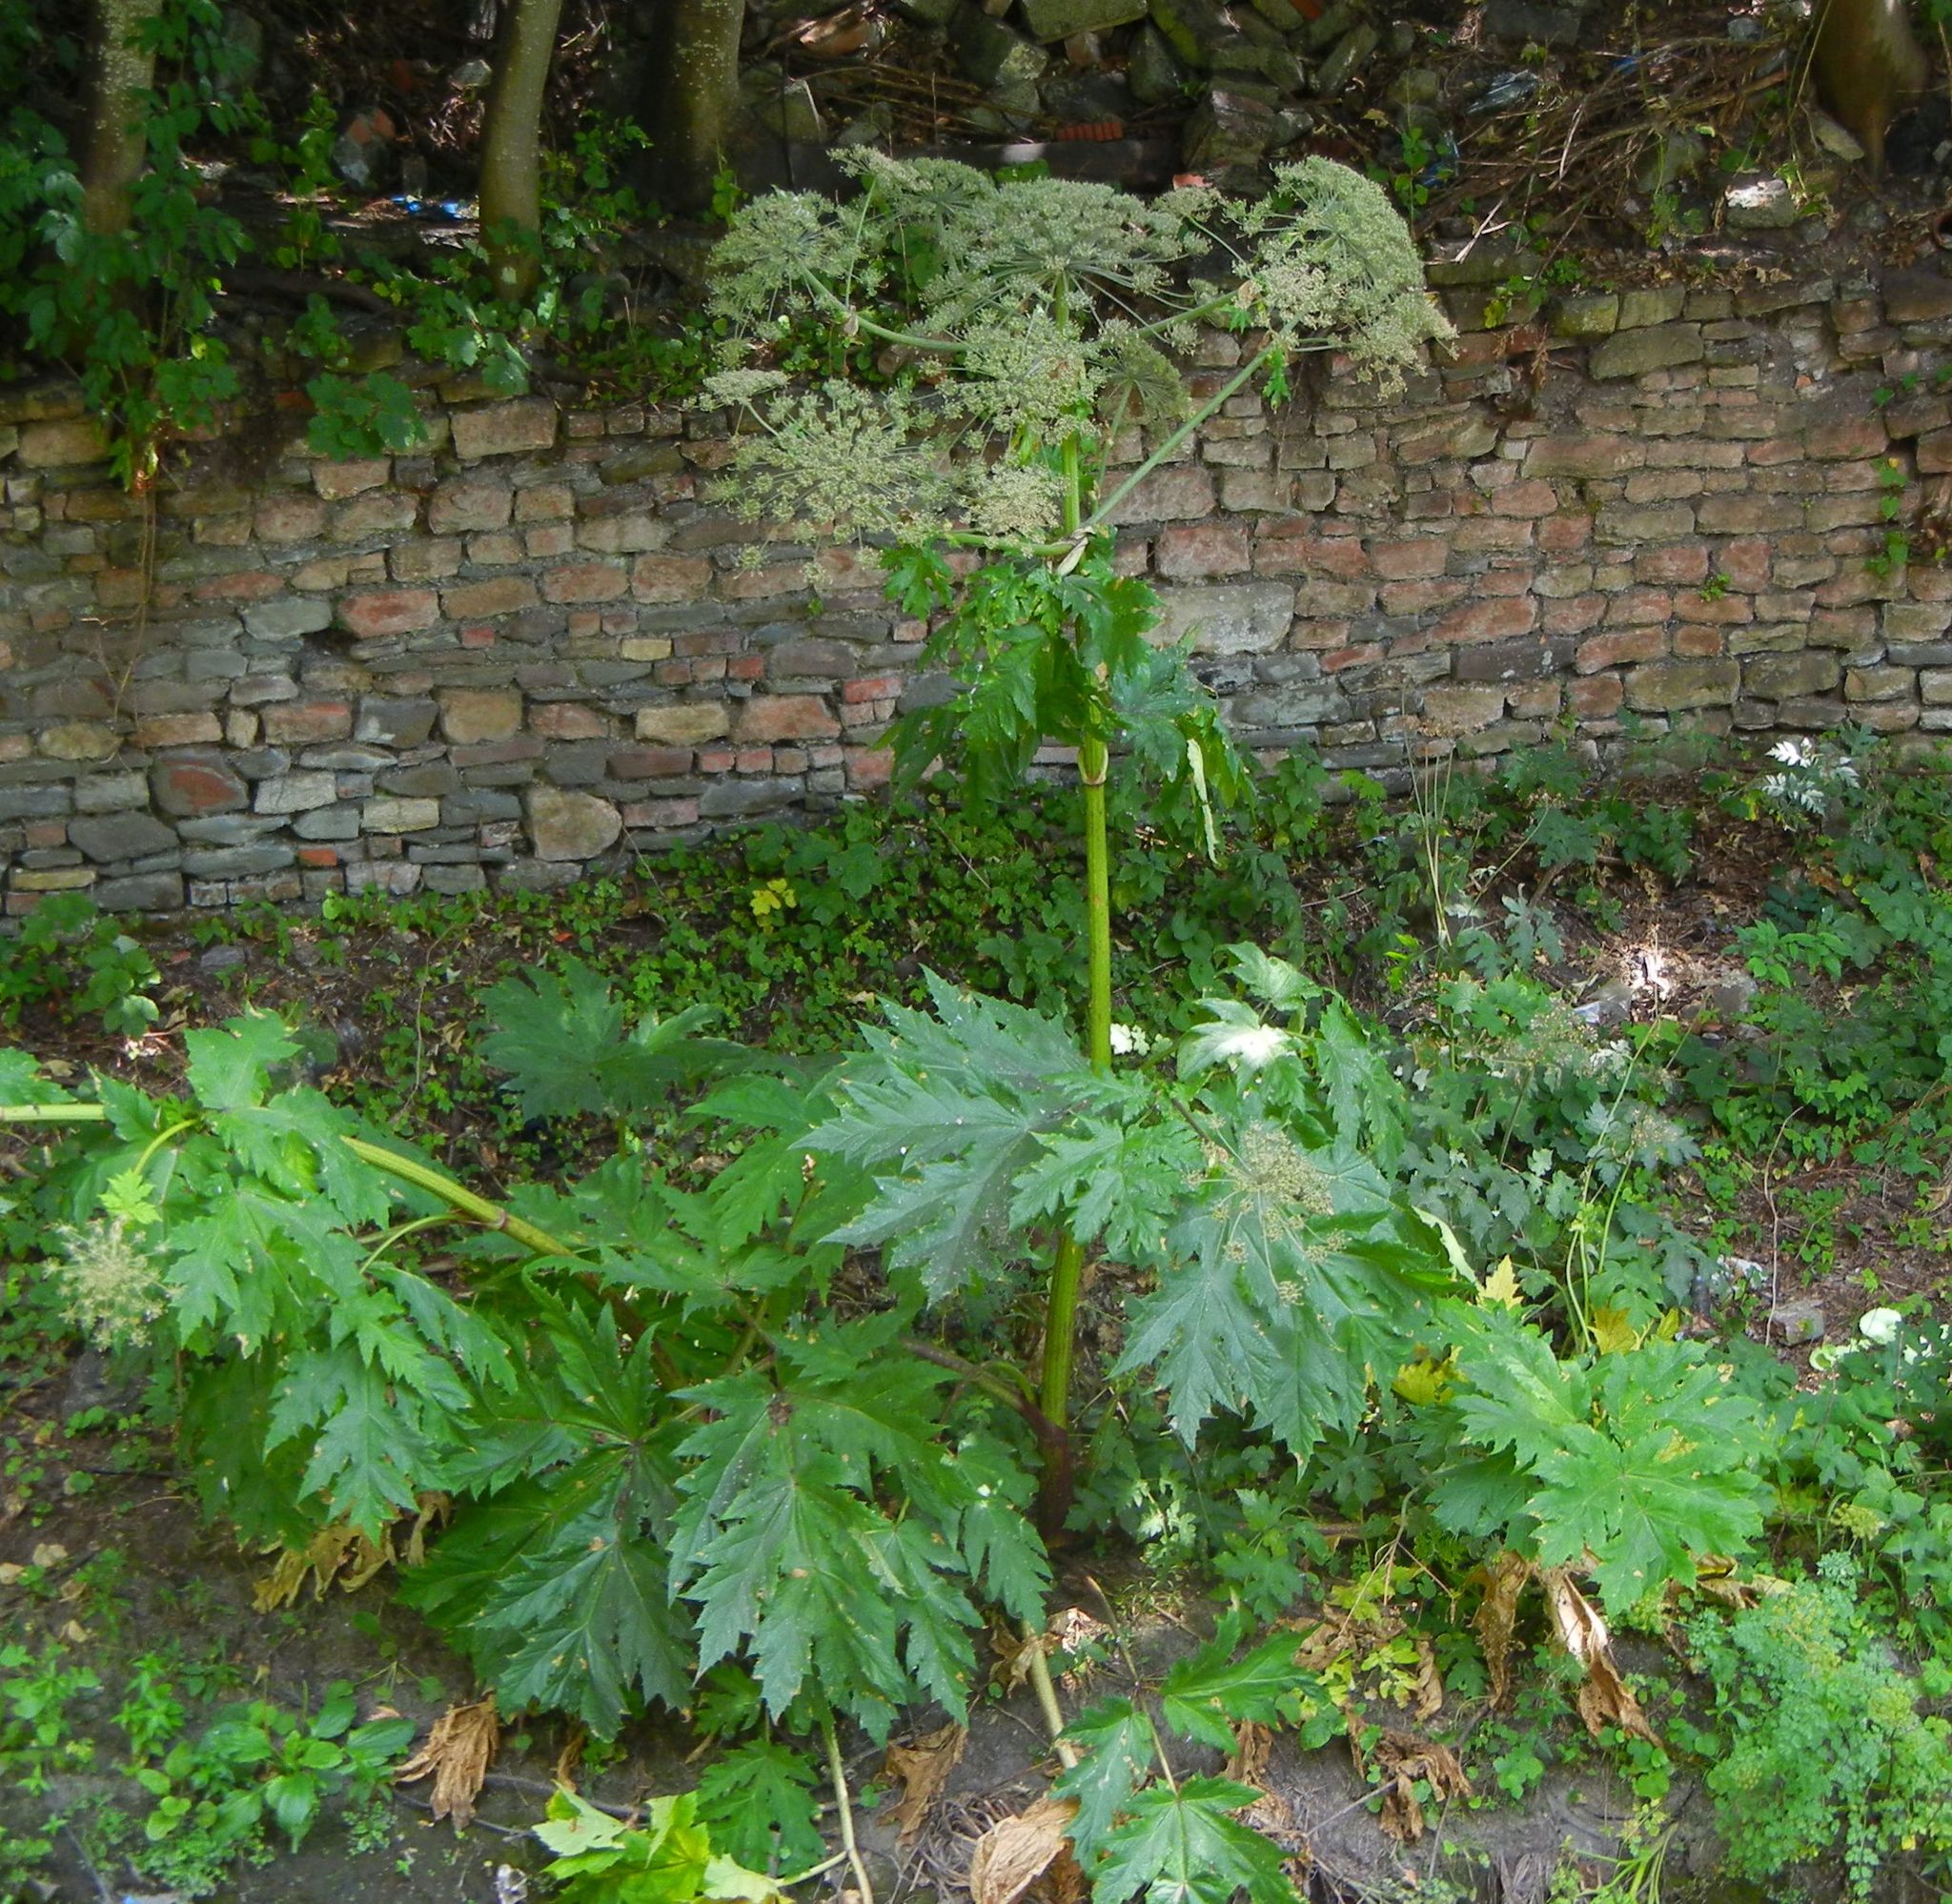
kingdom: Plantae
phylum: Tracheophyta
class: Magnoliopsida
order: Apiales
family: Apiaceae
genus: Heracleum
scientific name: Heracleum mantegazzianum
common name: Giant hogweed
